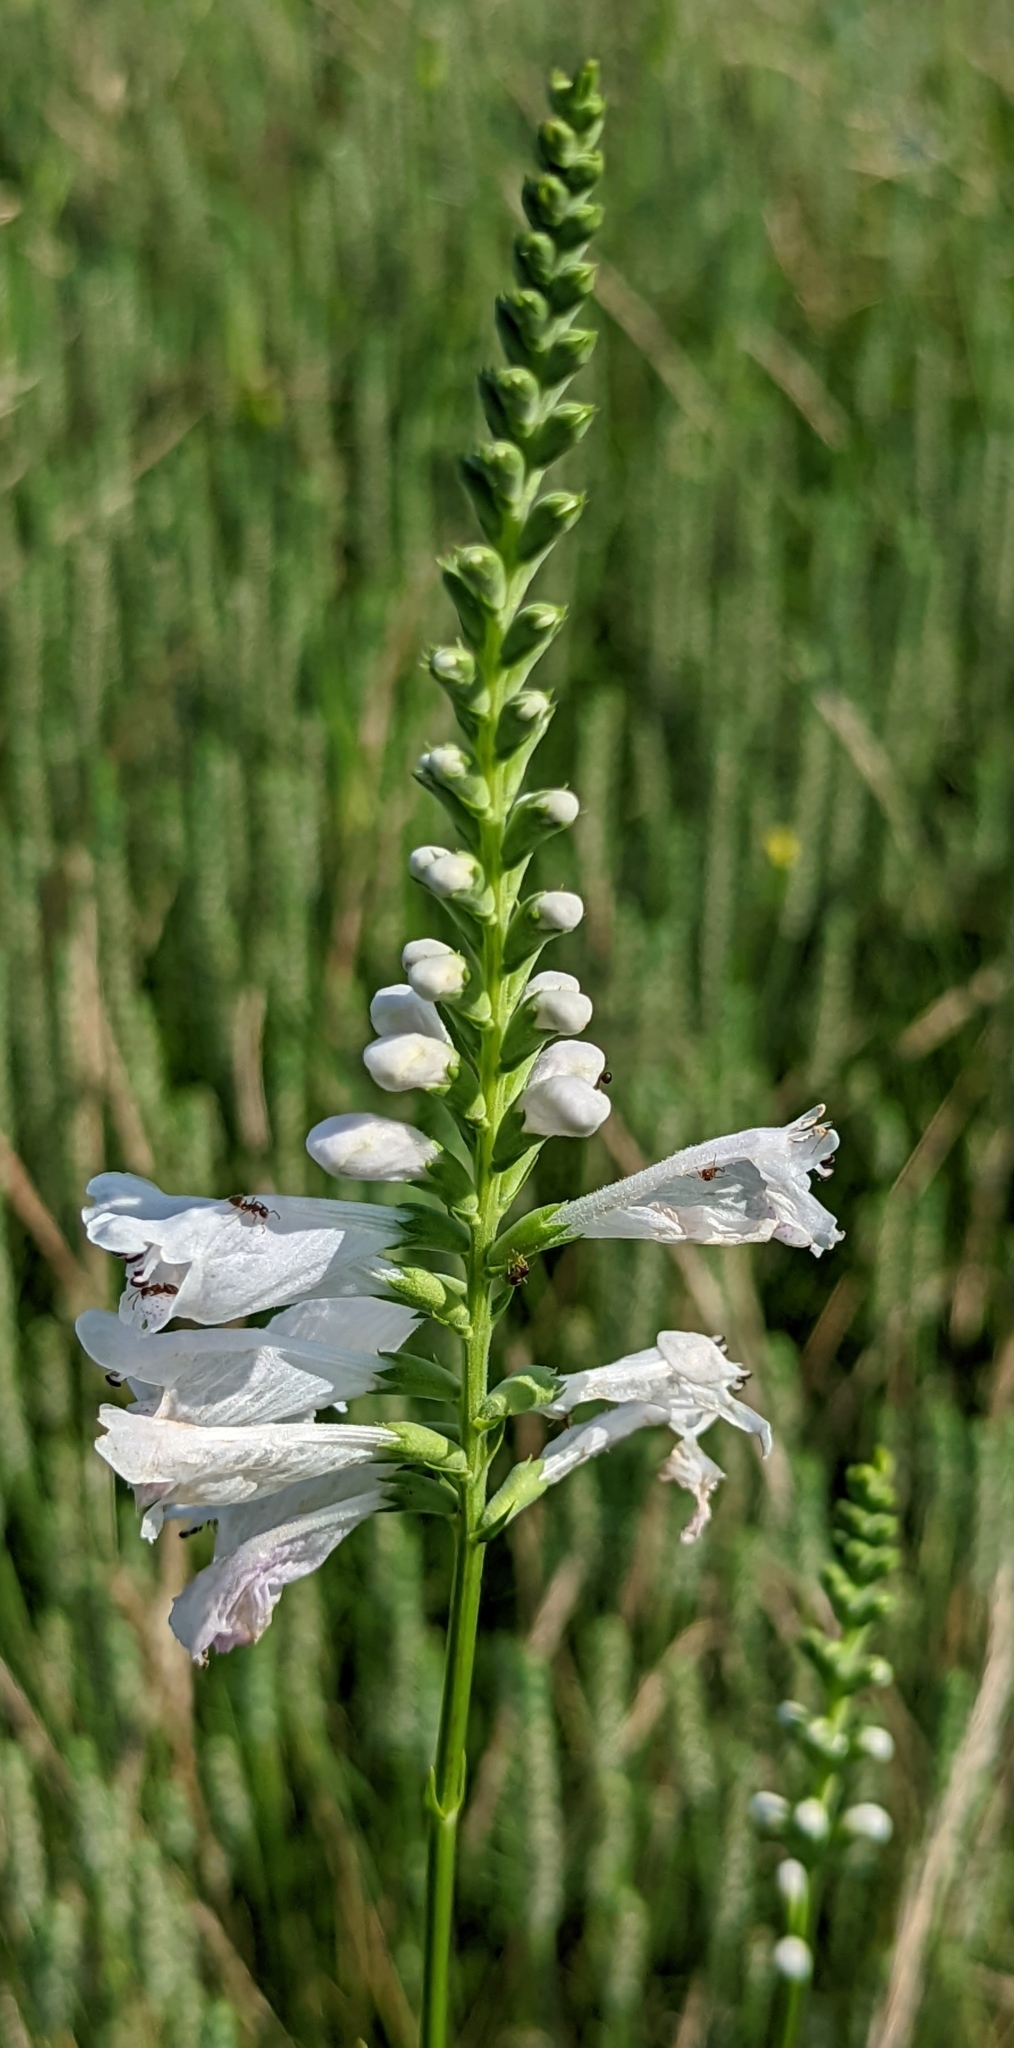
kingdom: Plantae
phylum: Tracheophyta
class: Magnoliopsida
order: Lamiales
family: Lamiaceae
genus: Physostegia
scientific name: Physostegia angustifolia
